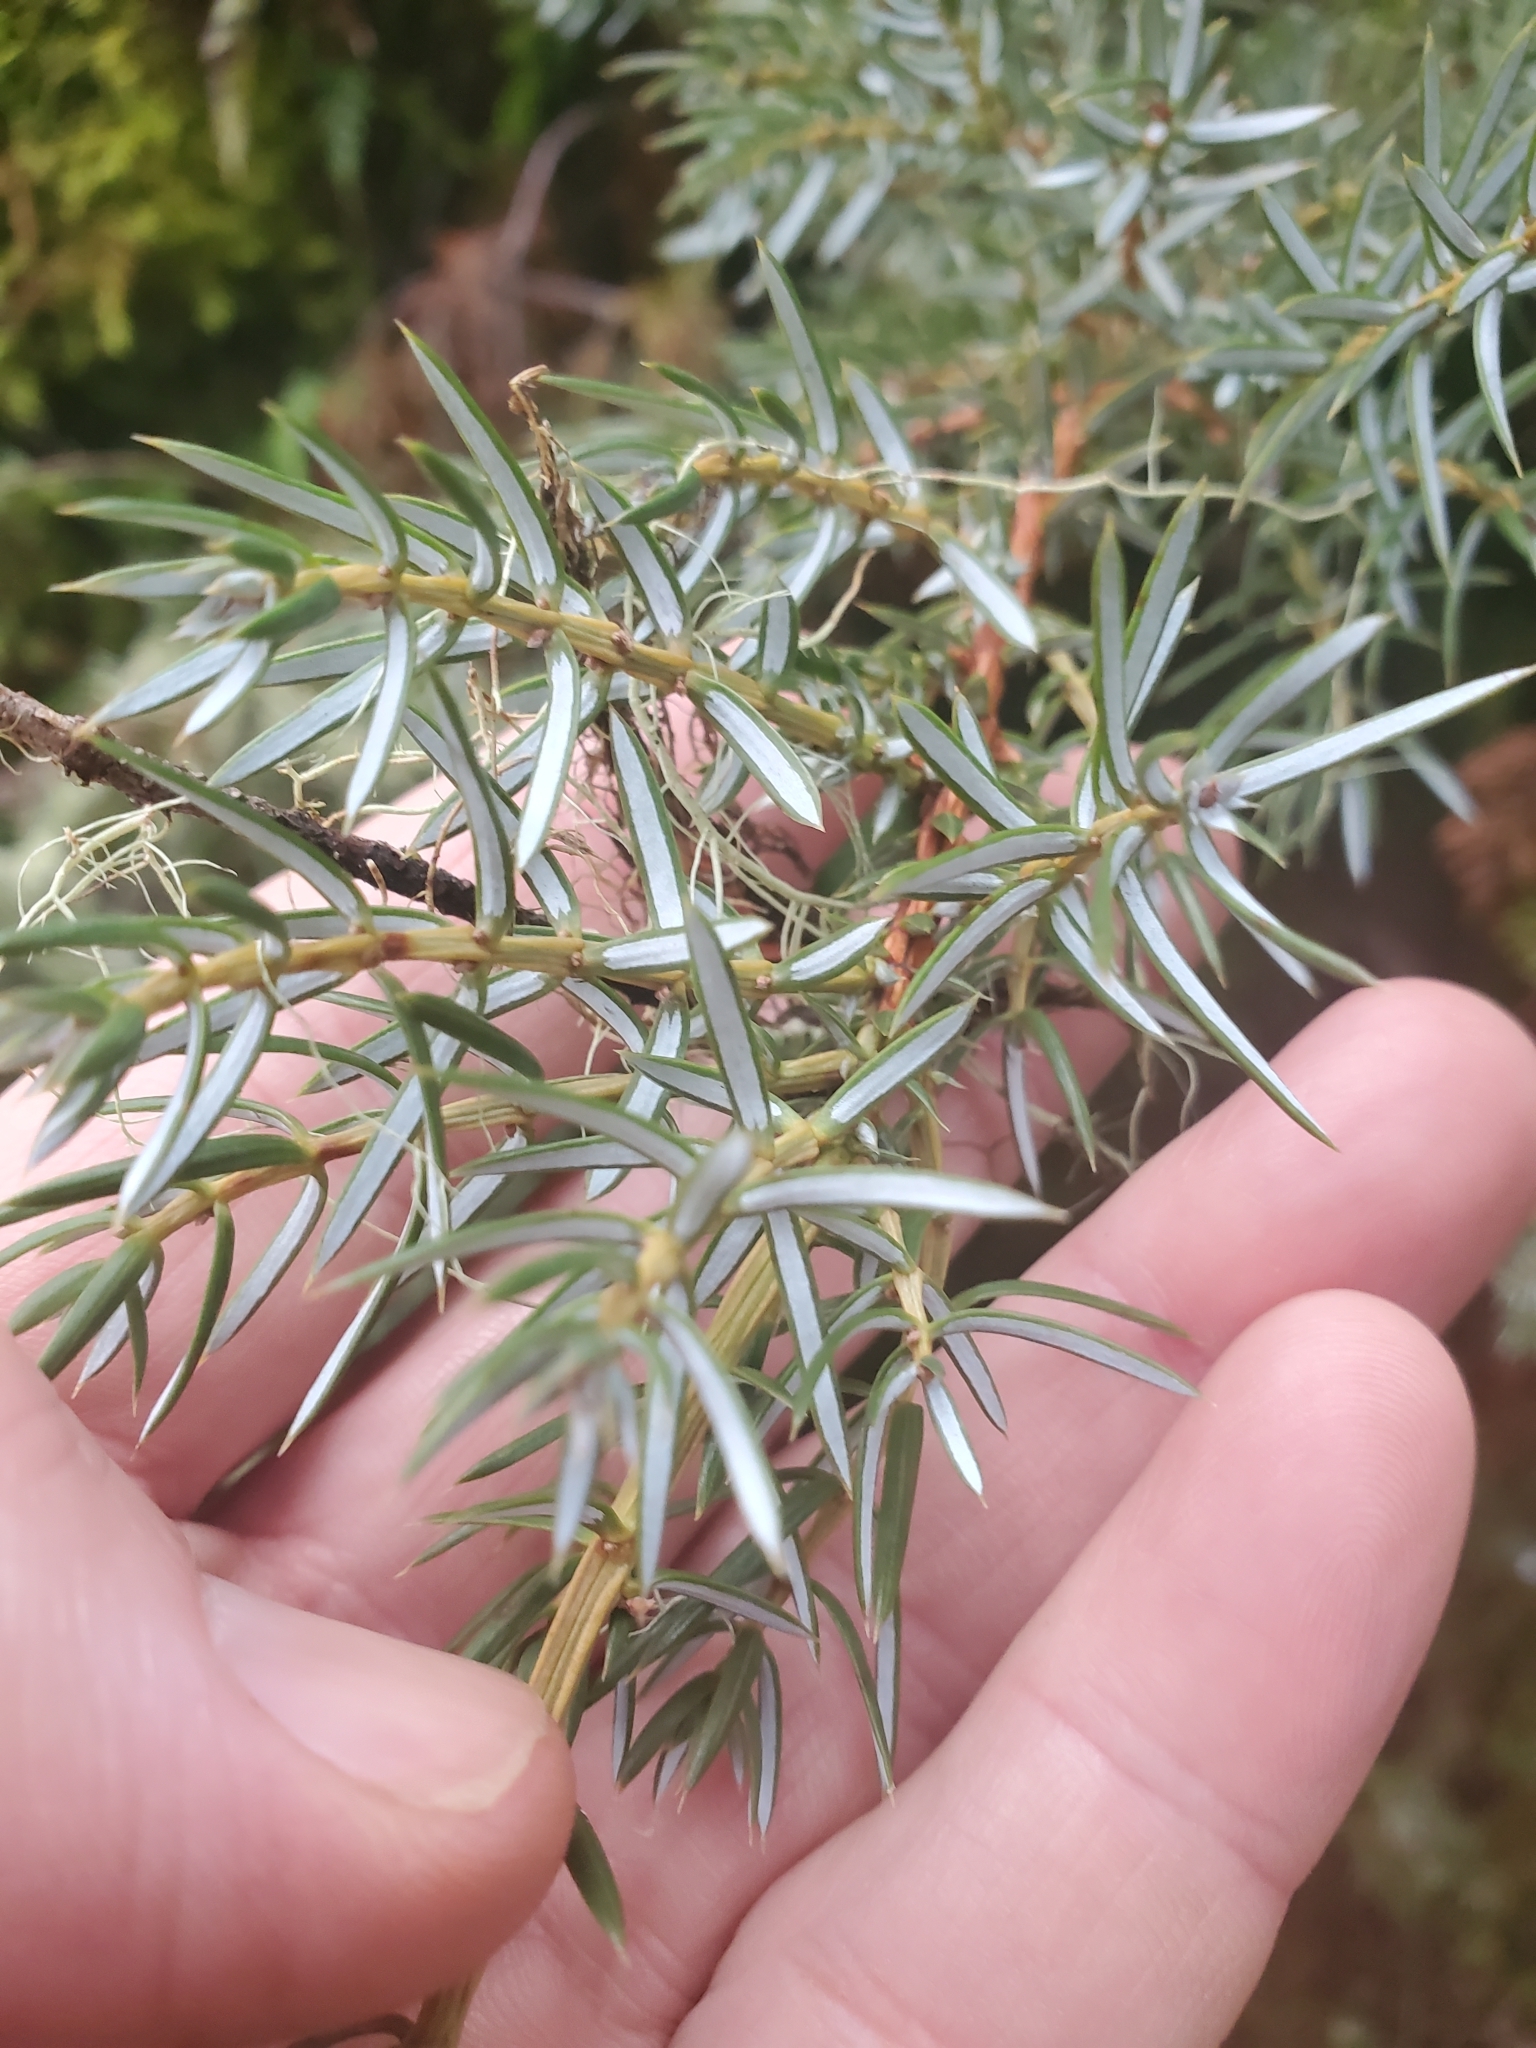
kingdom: Plantae
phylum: Tracheophyta
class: Pinopsida
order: Pinales
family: Cupressaceae
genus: Juniperus
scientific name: Juniperus communis
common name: Common juniper
